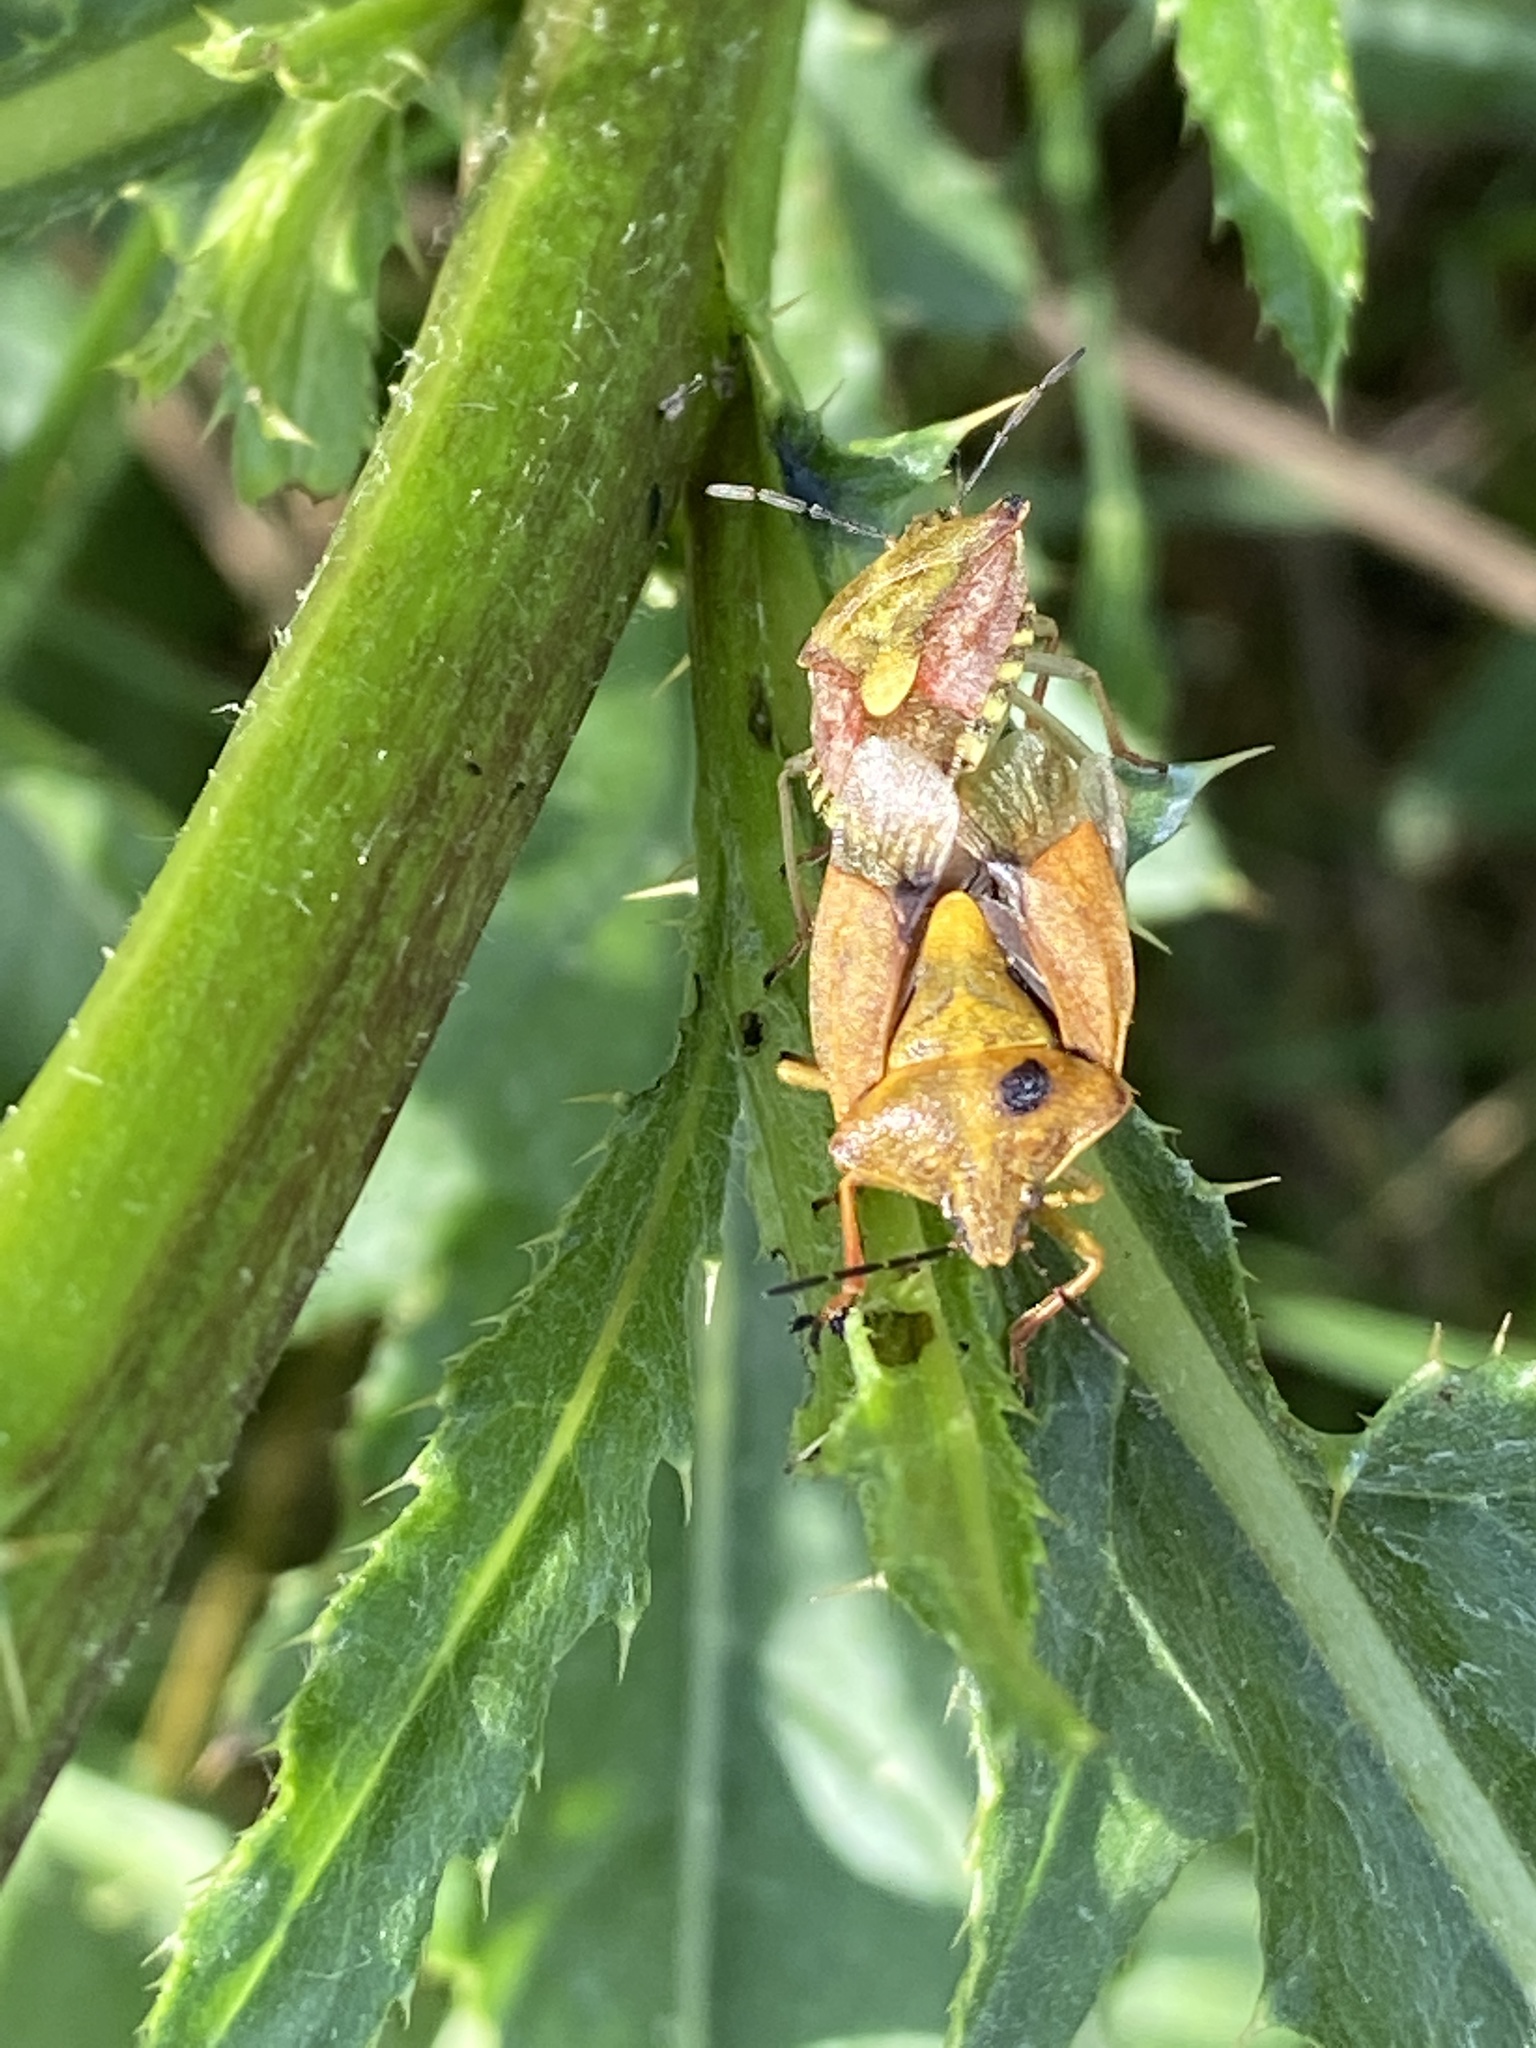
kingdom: Animalia
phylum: Arthropoda
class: Insecta
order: Hemiptera
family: Pentatomidae
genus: Carpocoris
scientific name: Carpocoris purpureipennis
